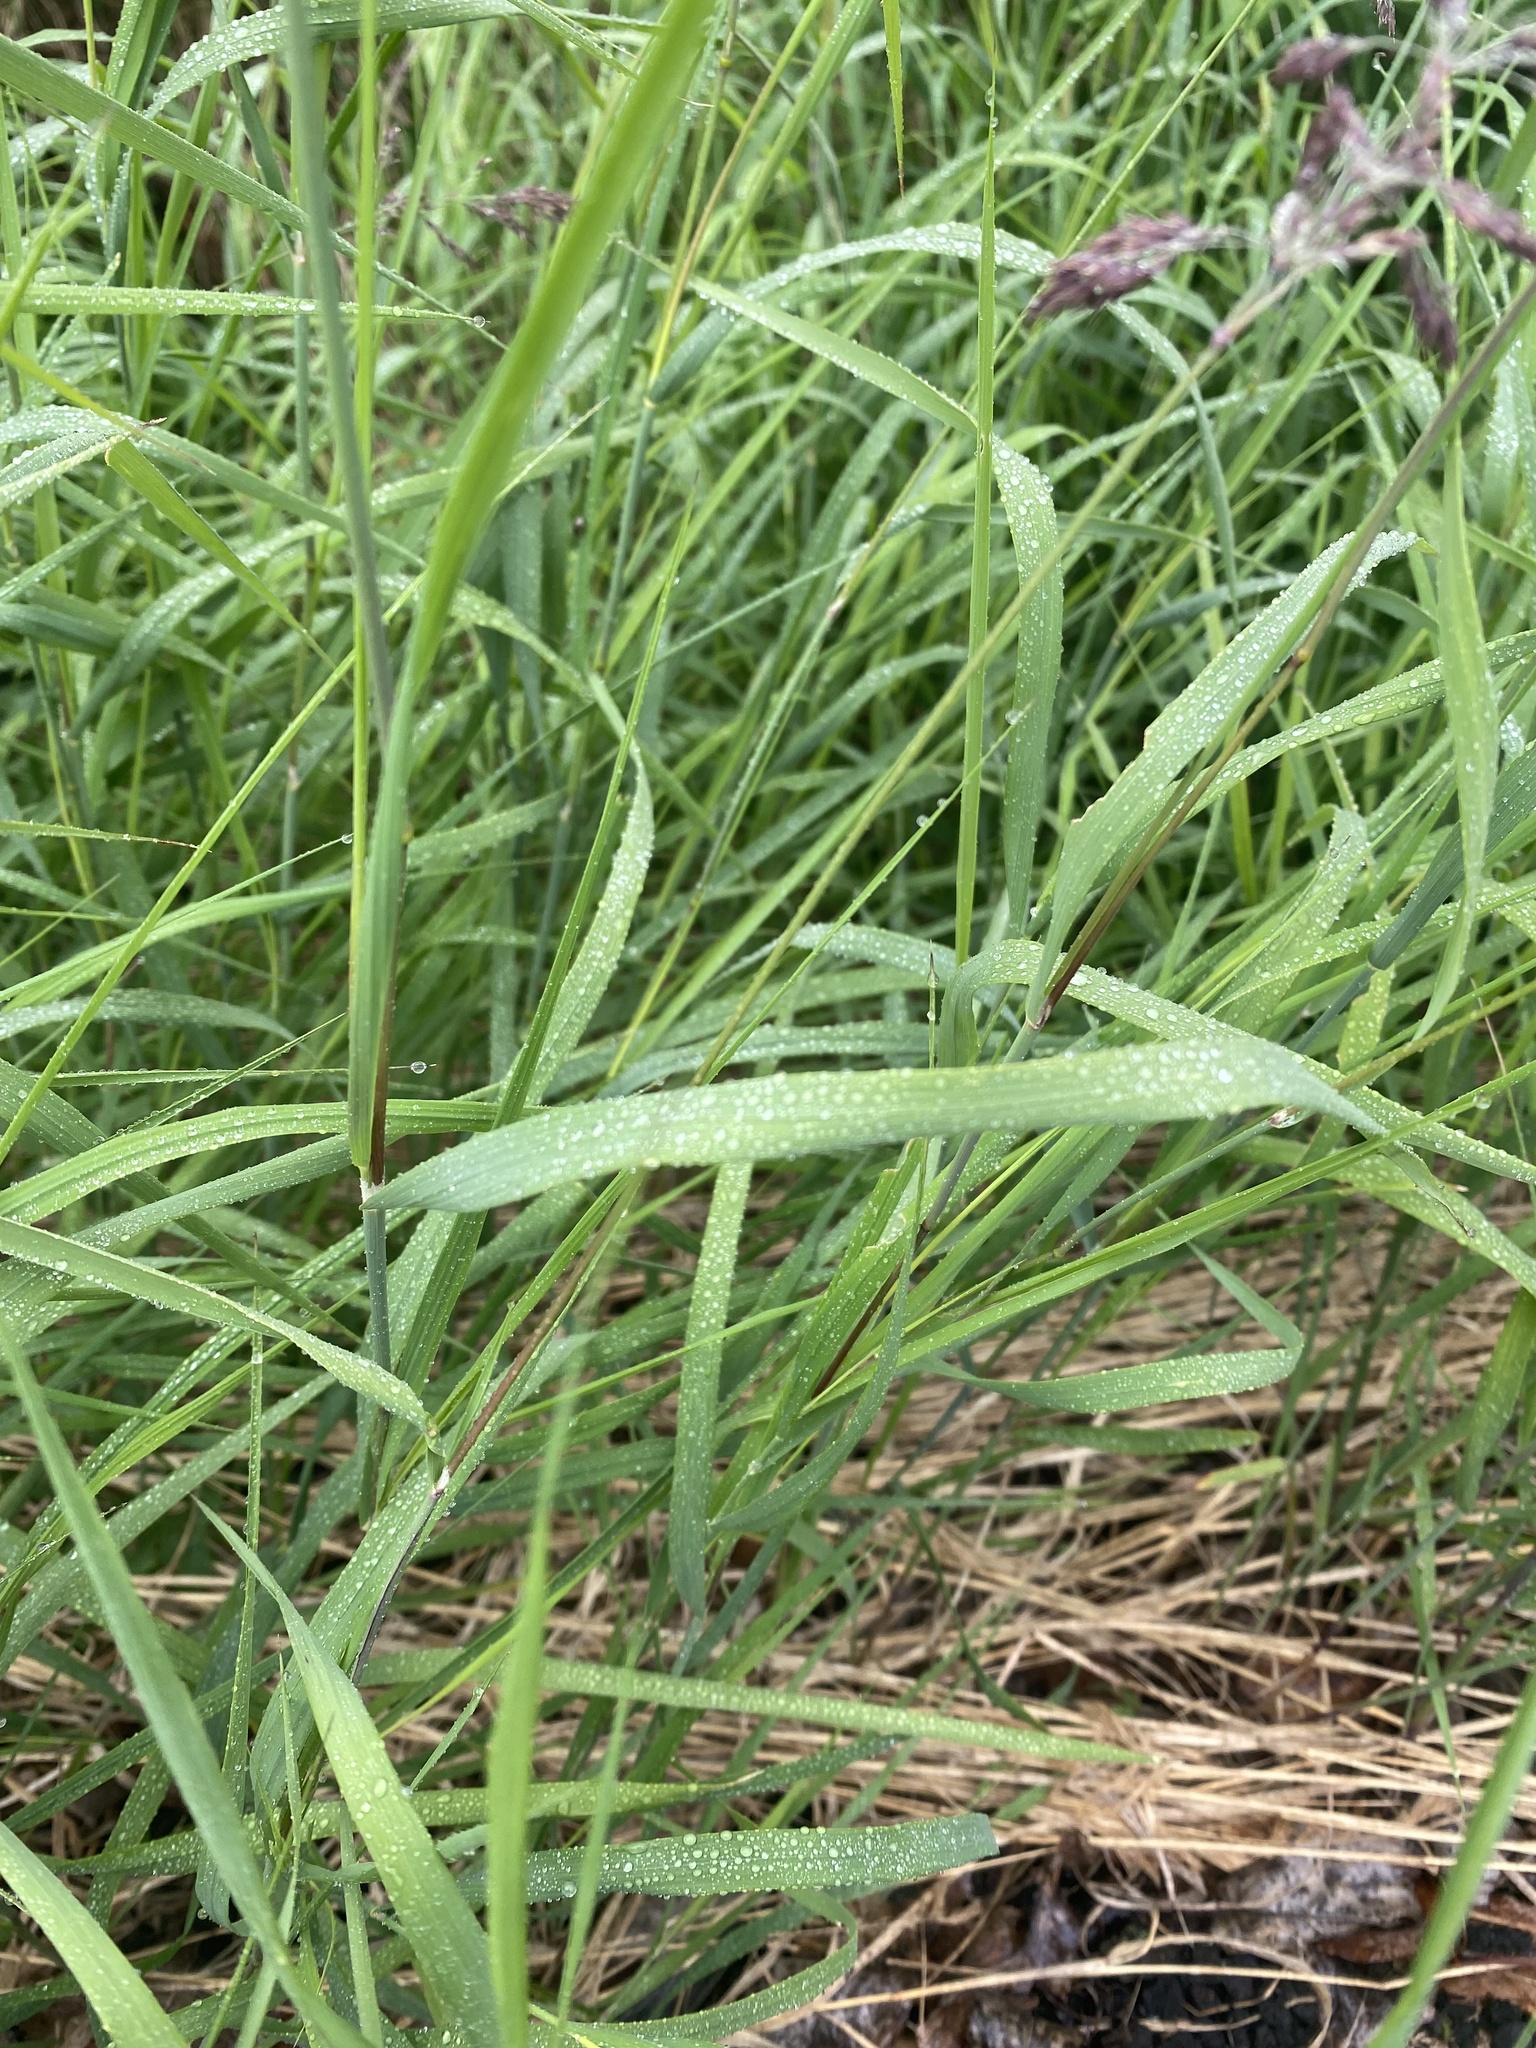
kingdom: Plantae
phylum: Tracheophyta
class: Liliopsida
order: Poales
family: Poaceae
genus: Calamagrostis
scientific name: Calamagrostis purpurea
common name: Scandinavian small-reed
